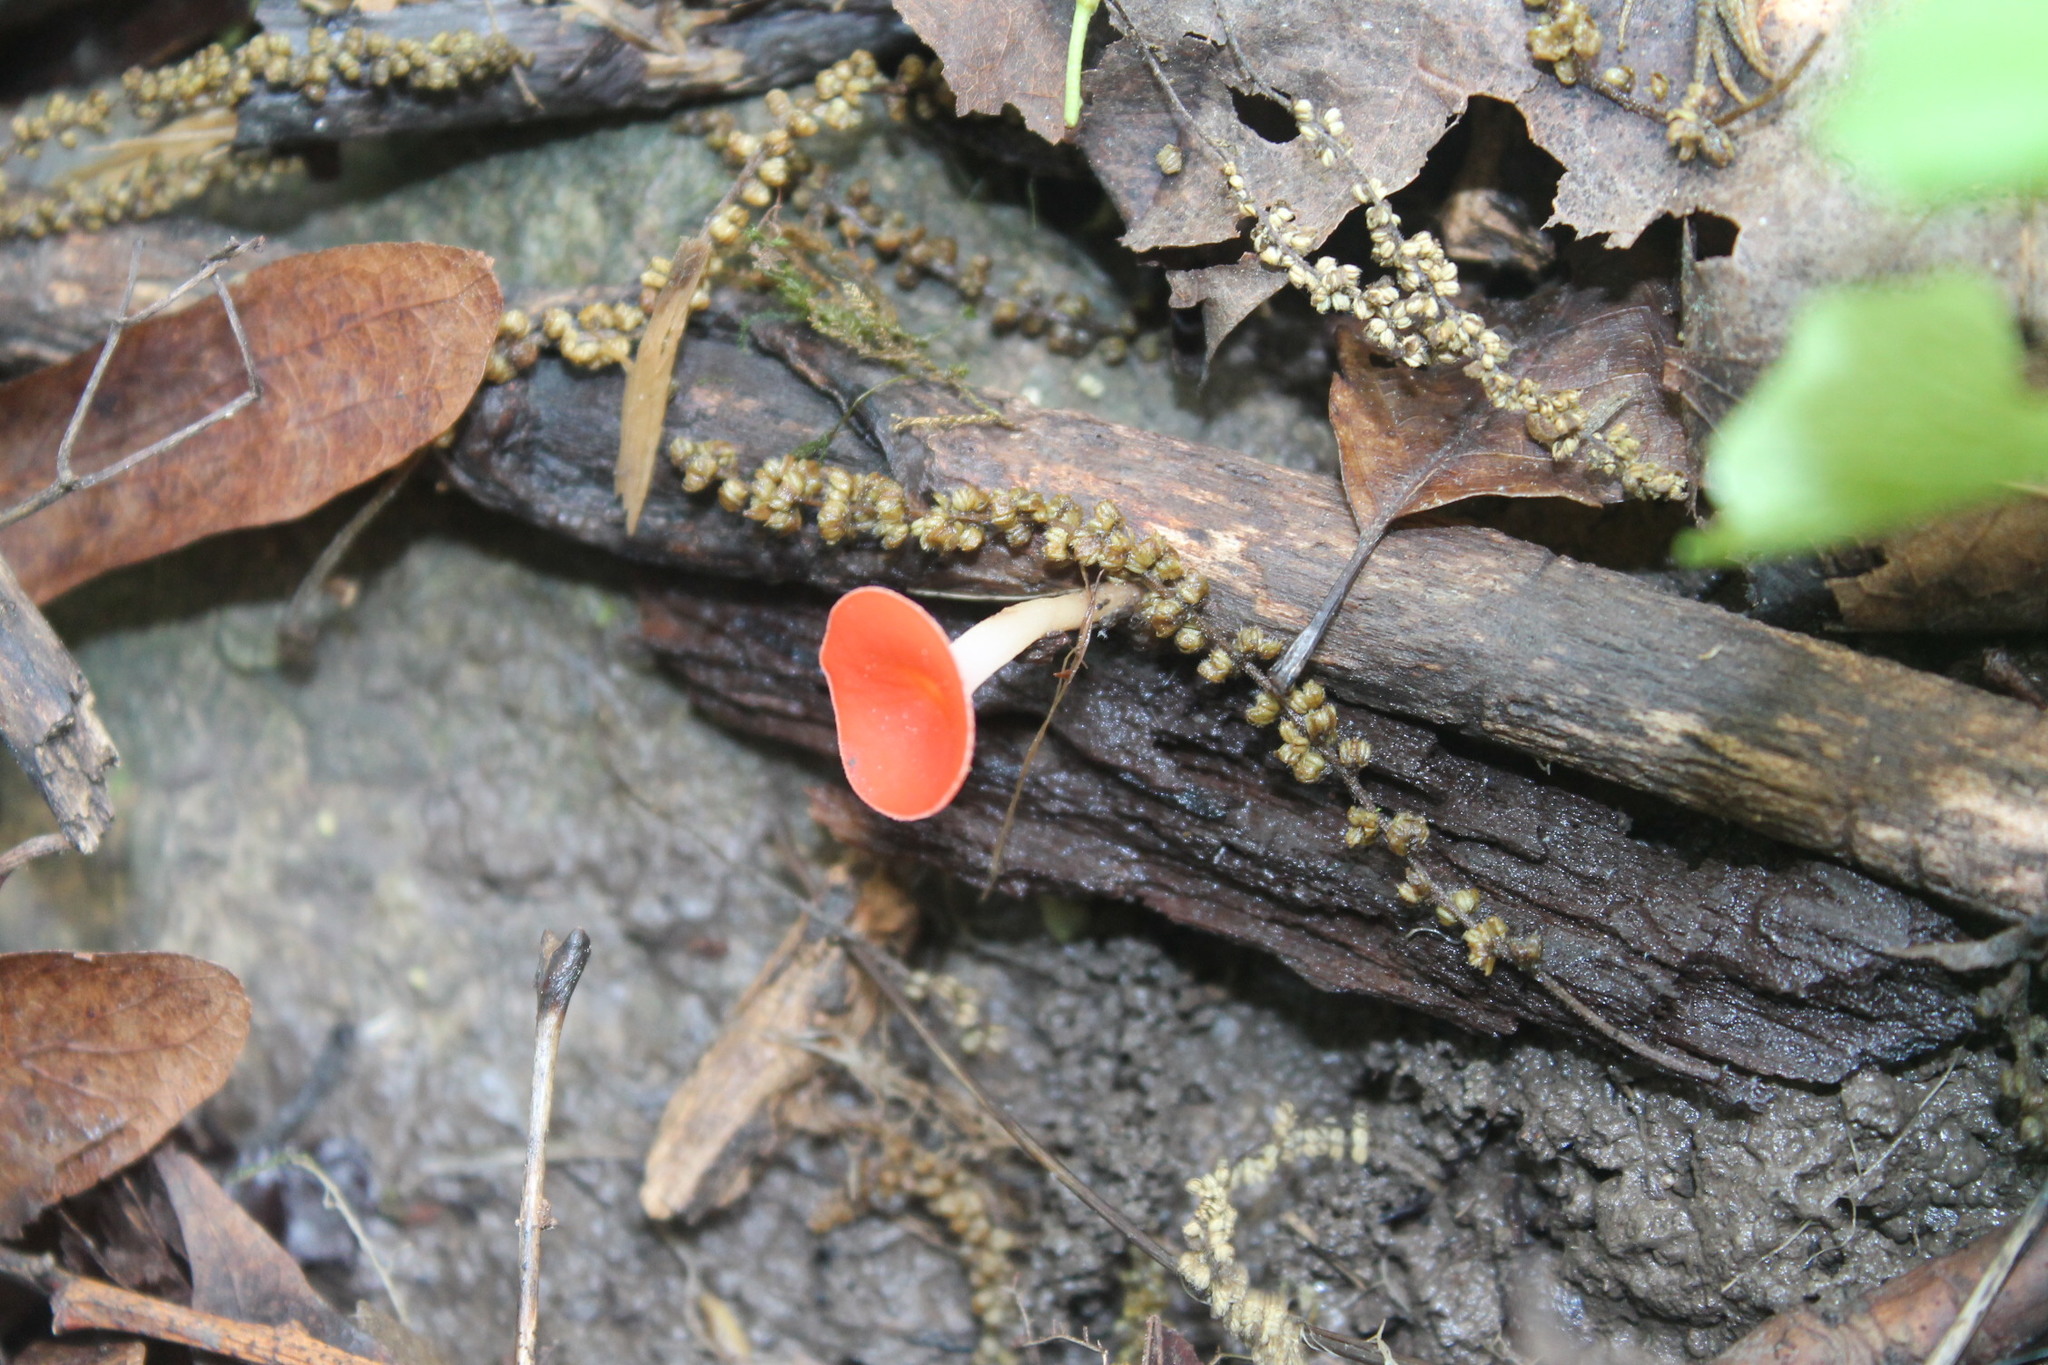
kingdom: Fungi
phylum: Ascomycota
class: Pezizomycetes
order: Pezizales
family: Sarcoscyphaceae
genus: Sarcoscypha
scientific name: Sarcoscypha occidentalis
